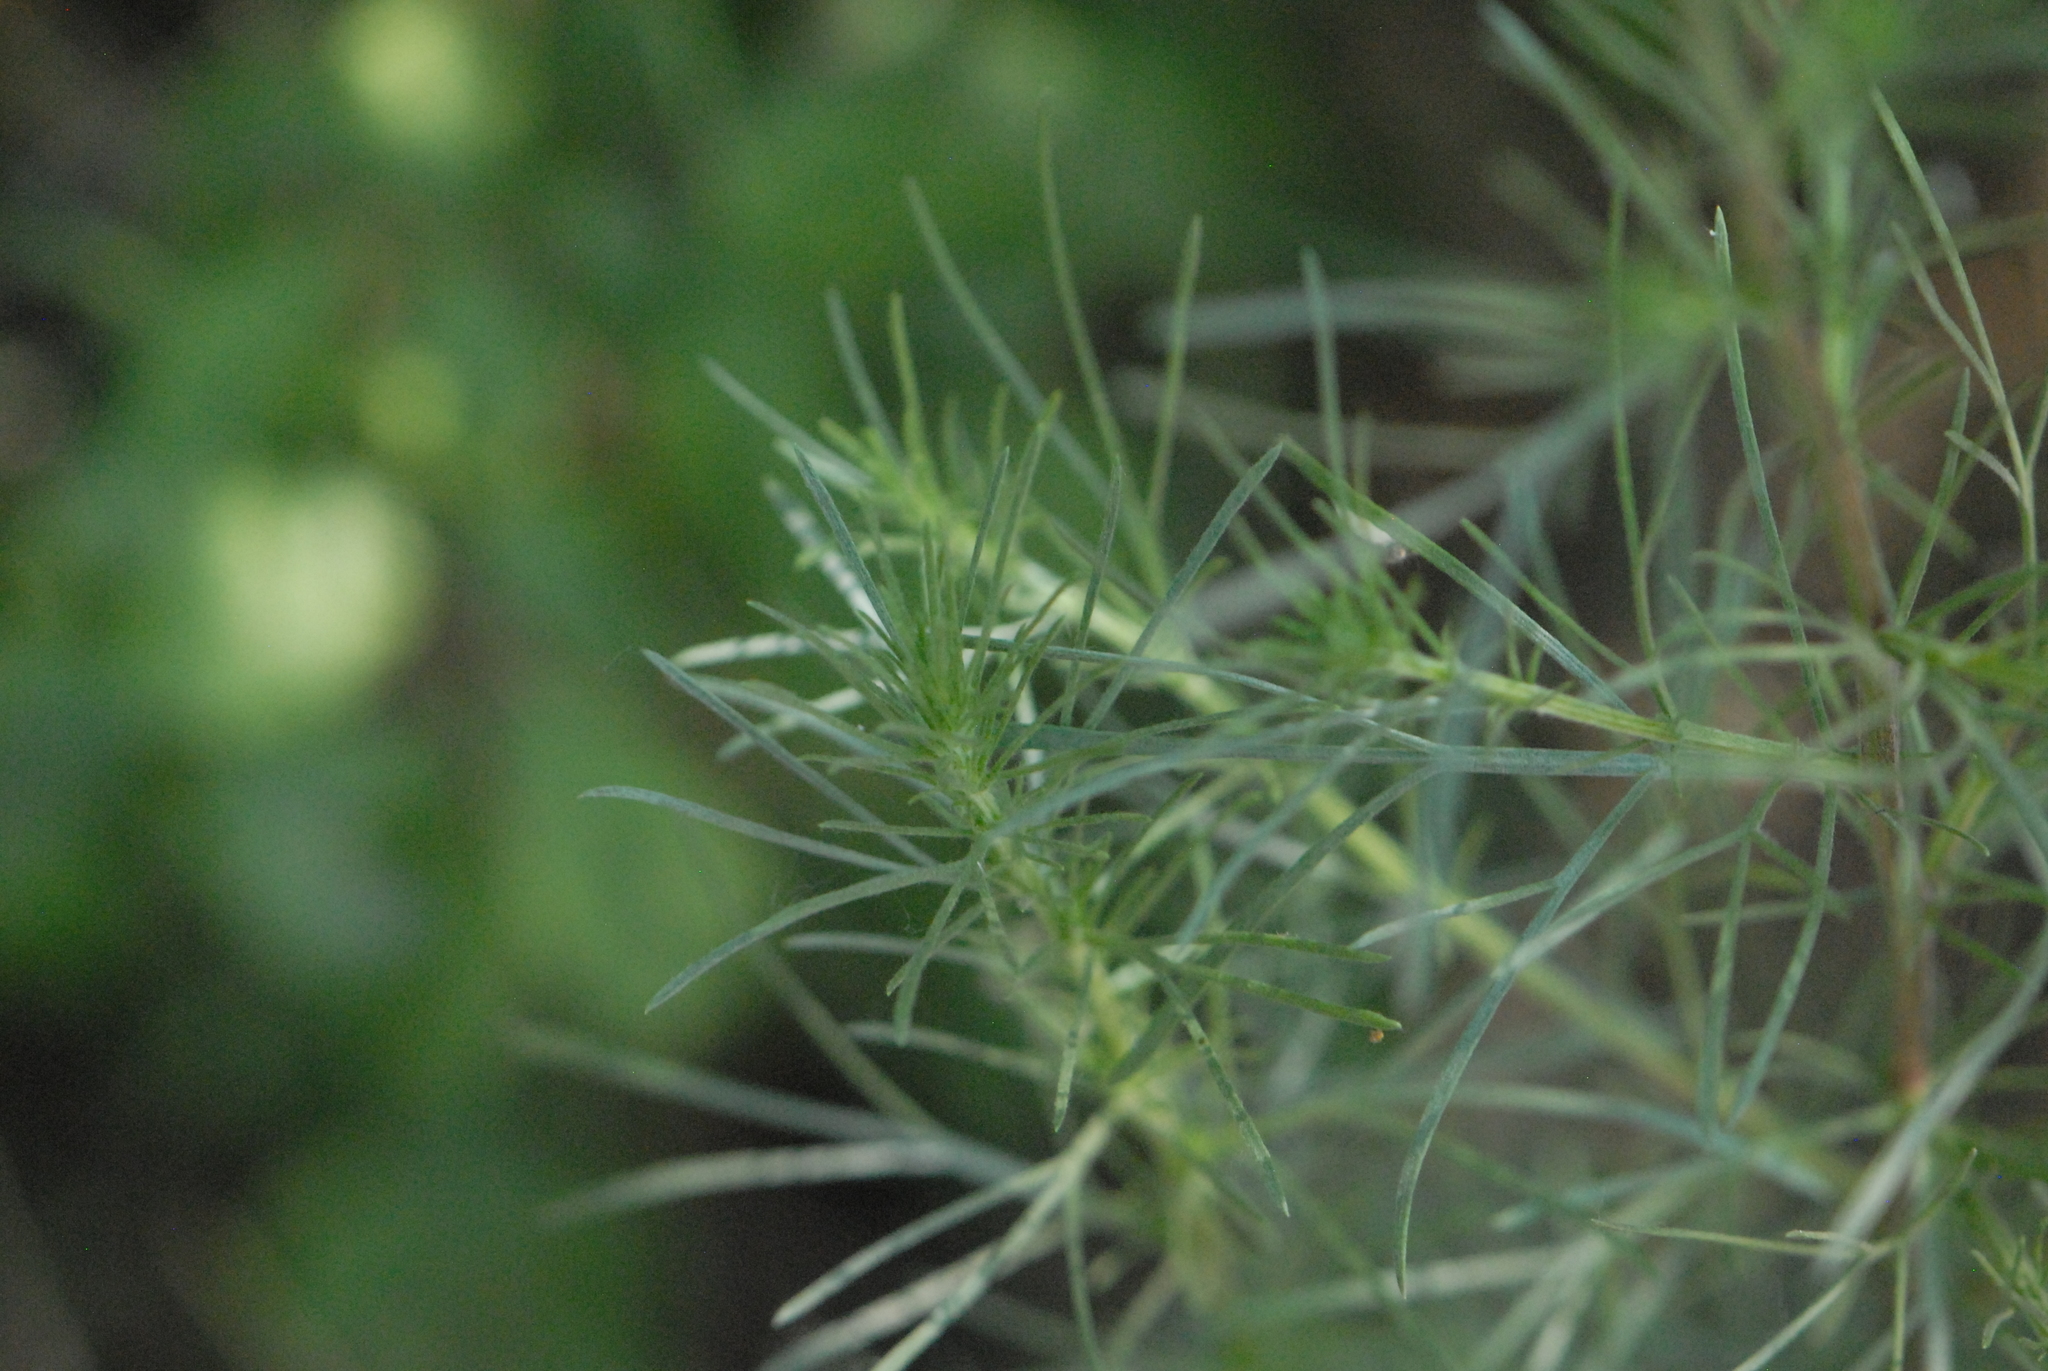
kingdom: Plantae
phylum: Tracheophyta
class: Magnoliopsida
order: Asterales
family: Asteraceae
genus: Artemisia
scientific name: Artemisia campestris
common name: Field wormwood
